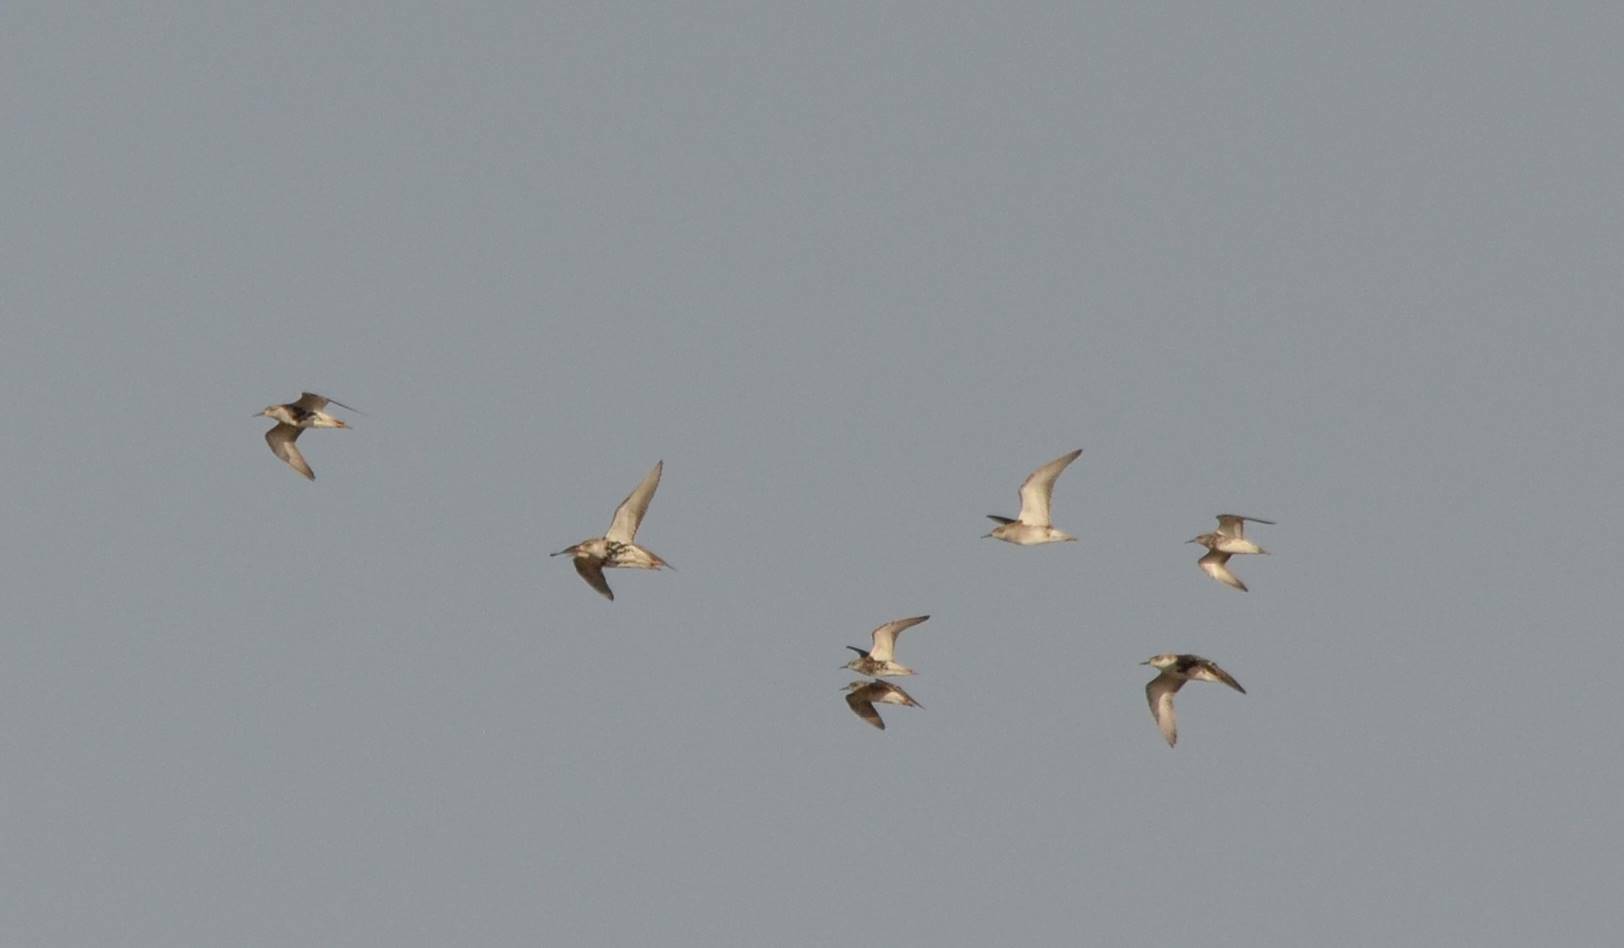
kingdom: Animalia
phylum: Chordata
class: Aves
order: Charadriiformes
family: Scolopacidae
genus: Calidris
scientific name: Calidris pugnax
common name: Ruff
